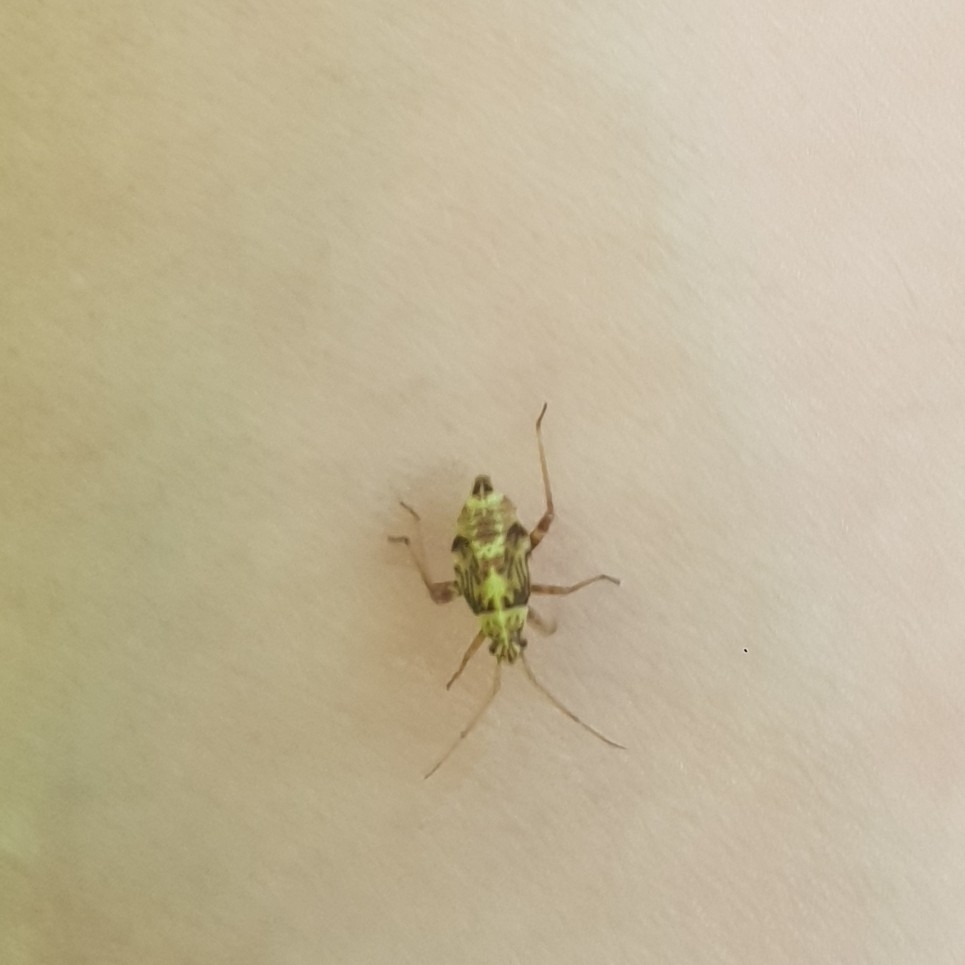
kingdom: Animalia
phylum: Arthropoda
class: Insecta
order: Hemiptera
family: Miridae
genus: Rhabdomiris
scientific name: Rhabdomiris striatellus
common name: Plant bug
